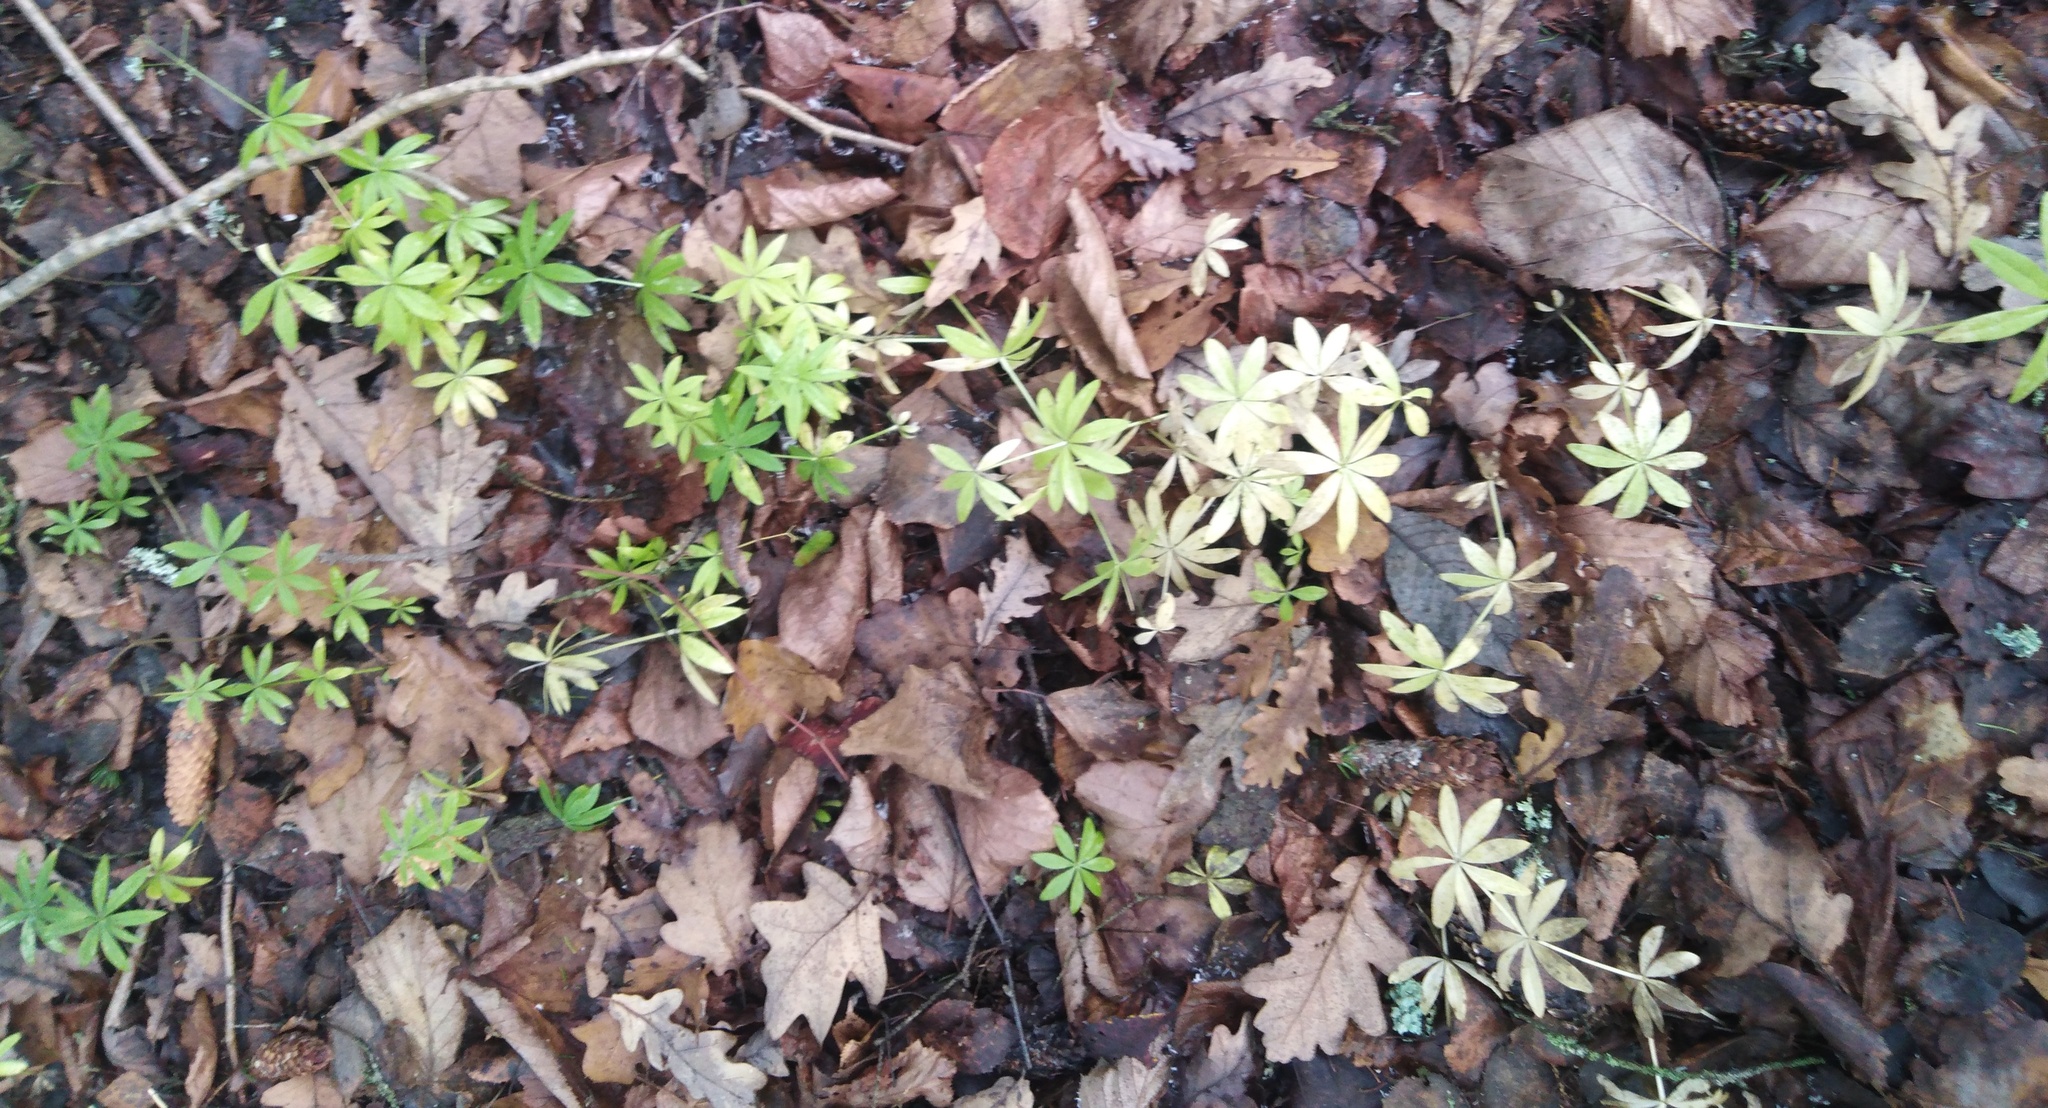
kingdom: Plantae
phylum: Tracheophyta
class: Magnoliopsida
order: Gentianales
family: Rubiaceae
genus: Galium
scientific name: Galium odoratum
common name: Sweet woodruff
